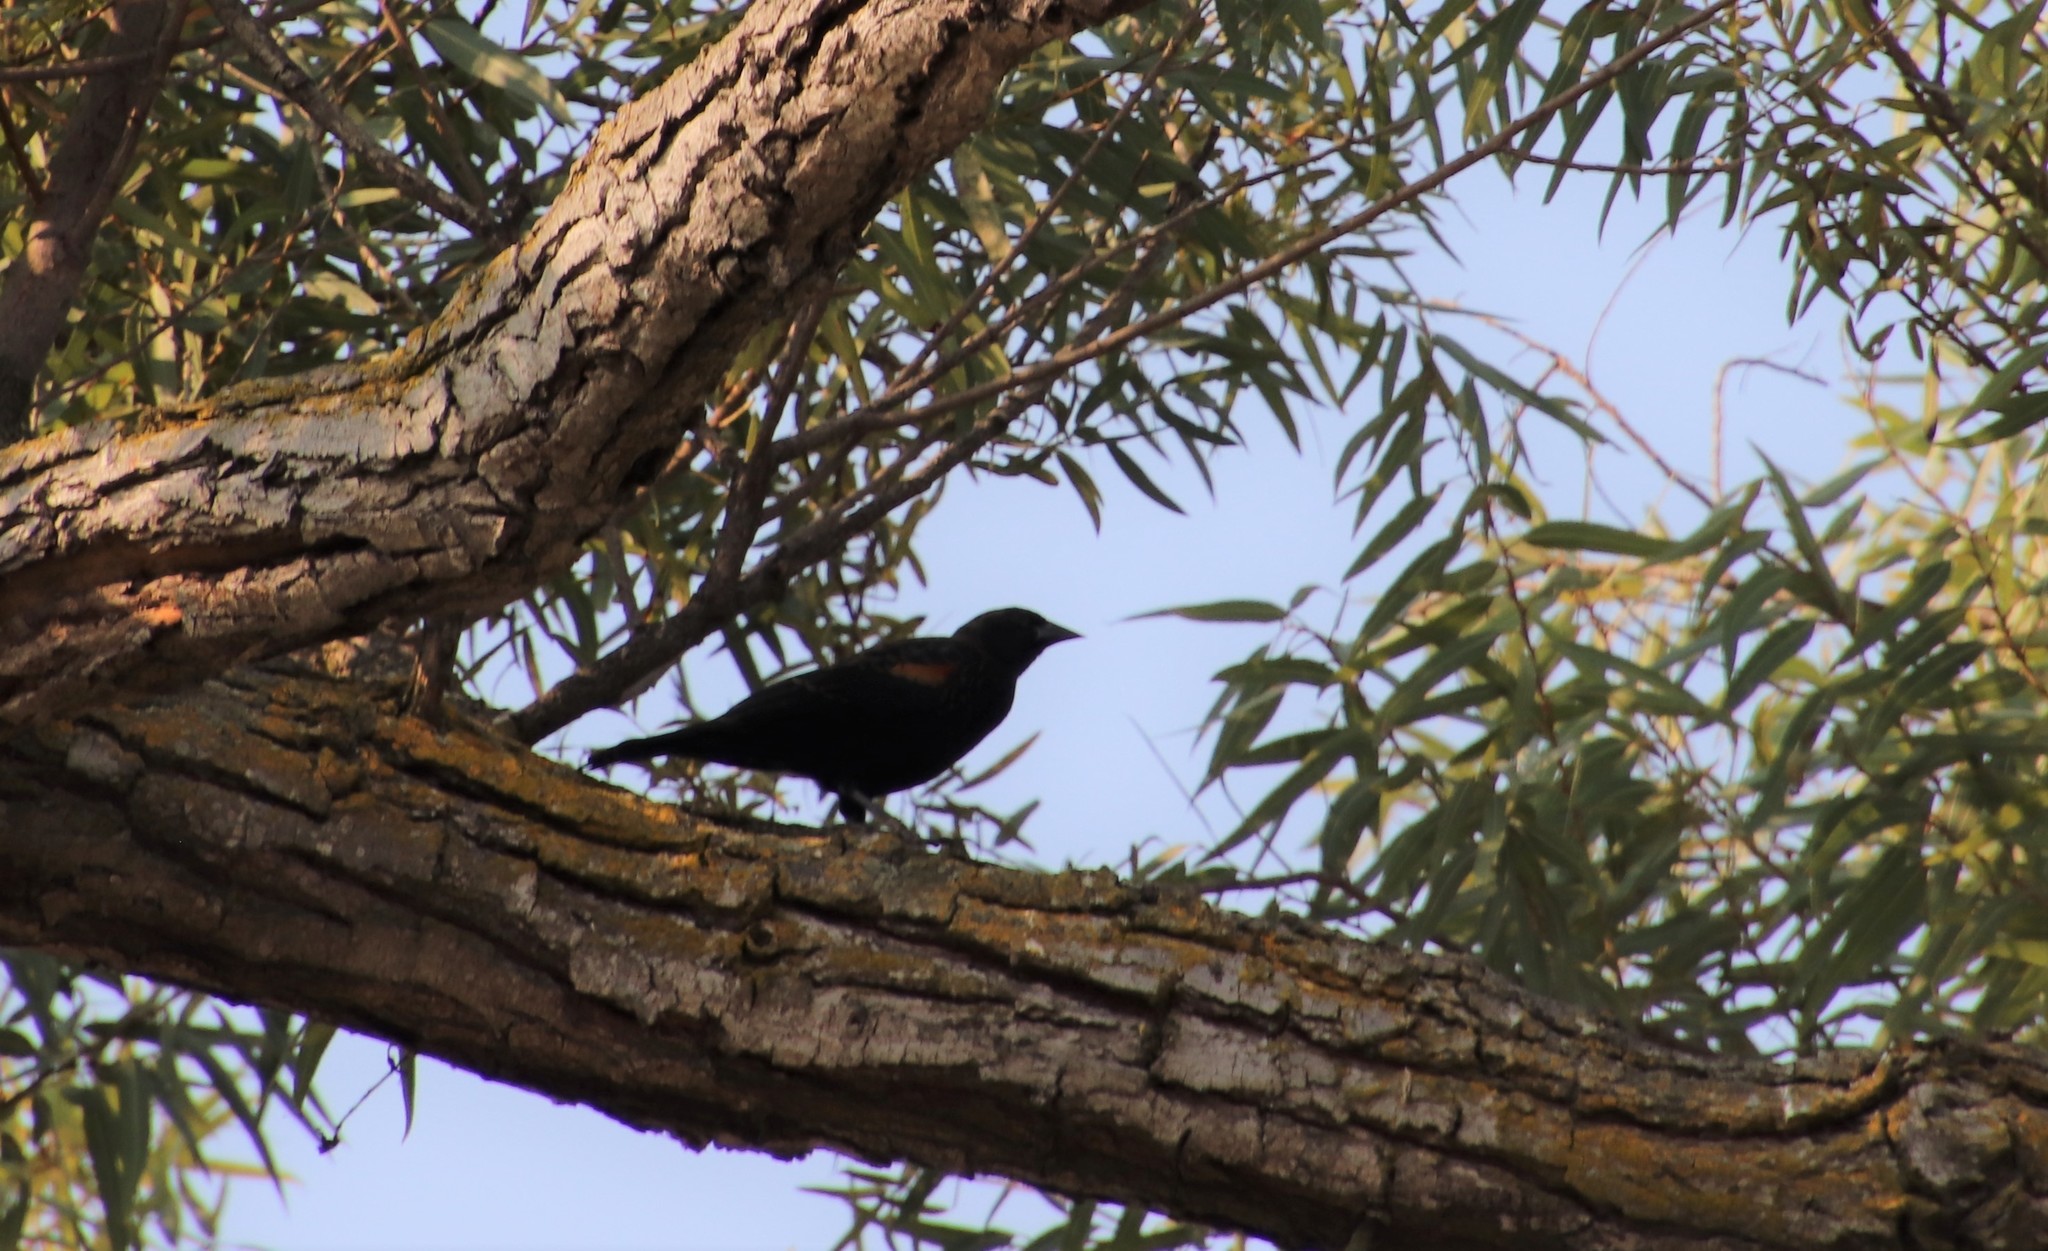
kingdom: Animalia
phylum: Chordata
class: Aves
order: Passeriformes
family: Icteridae
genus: Agelaius
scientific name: Agelaius phoeniceus
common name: Red-winged blackbird
